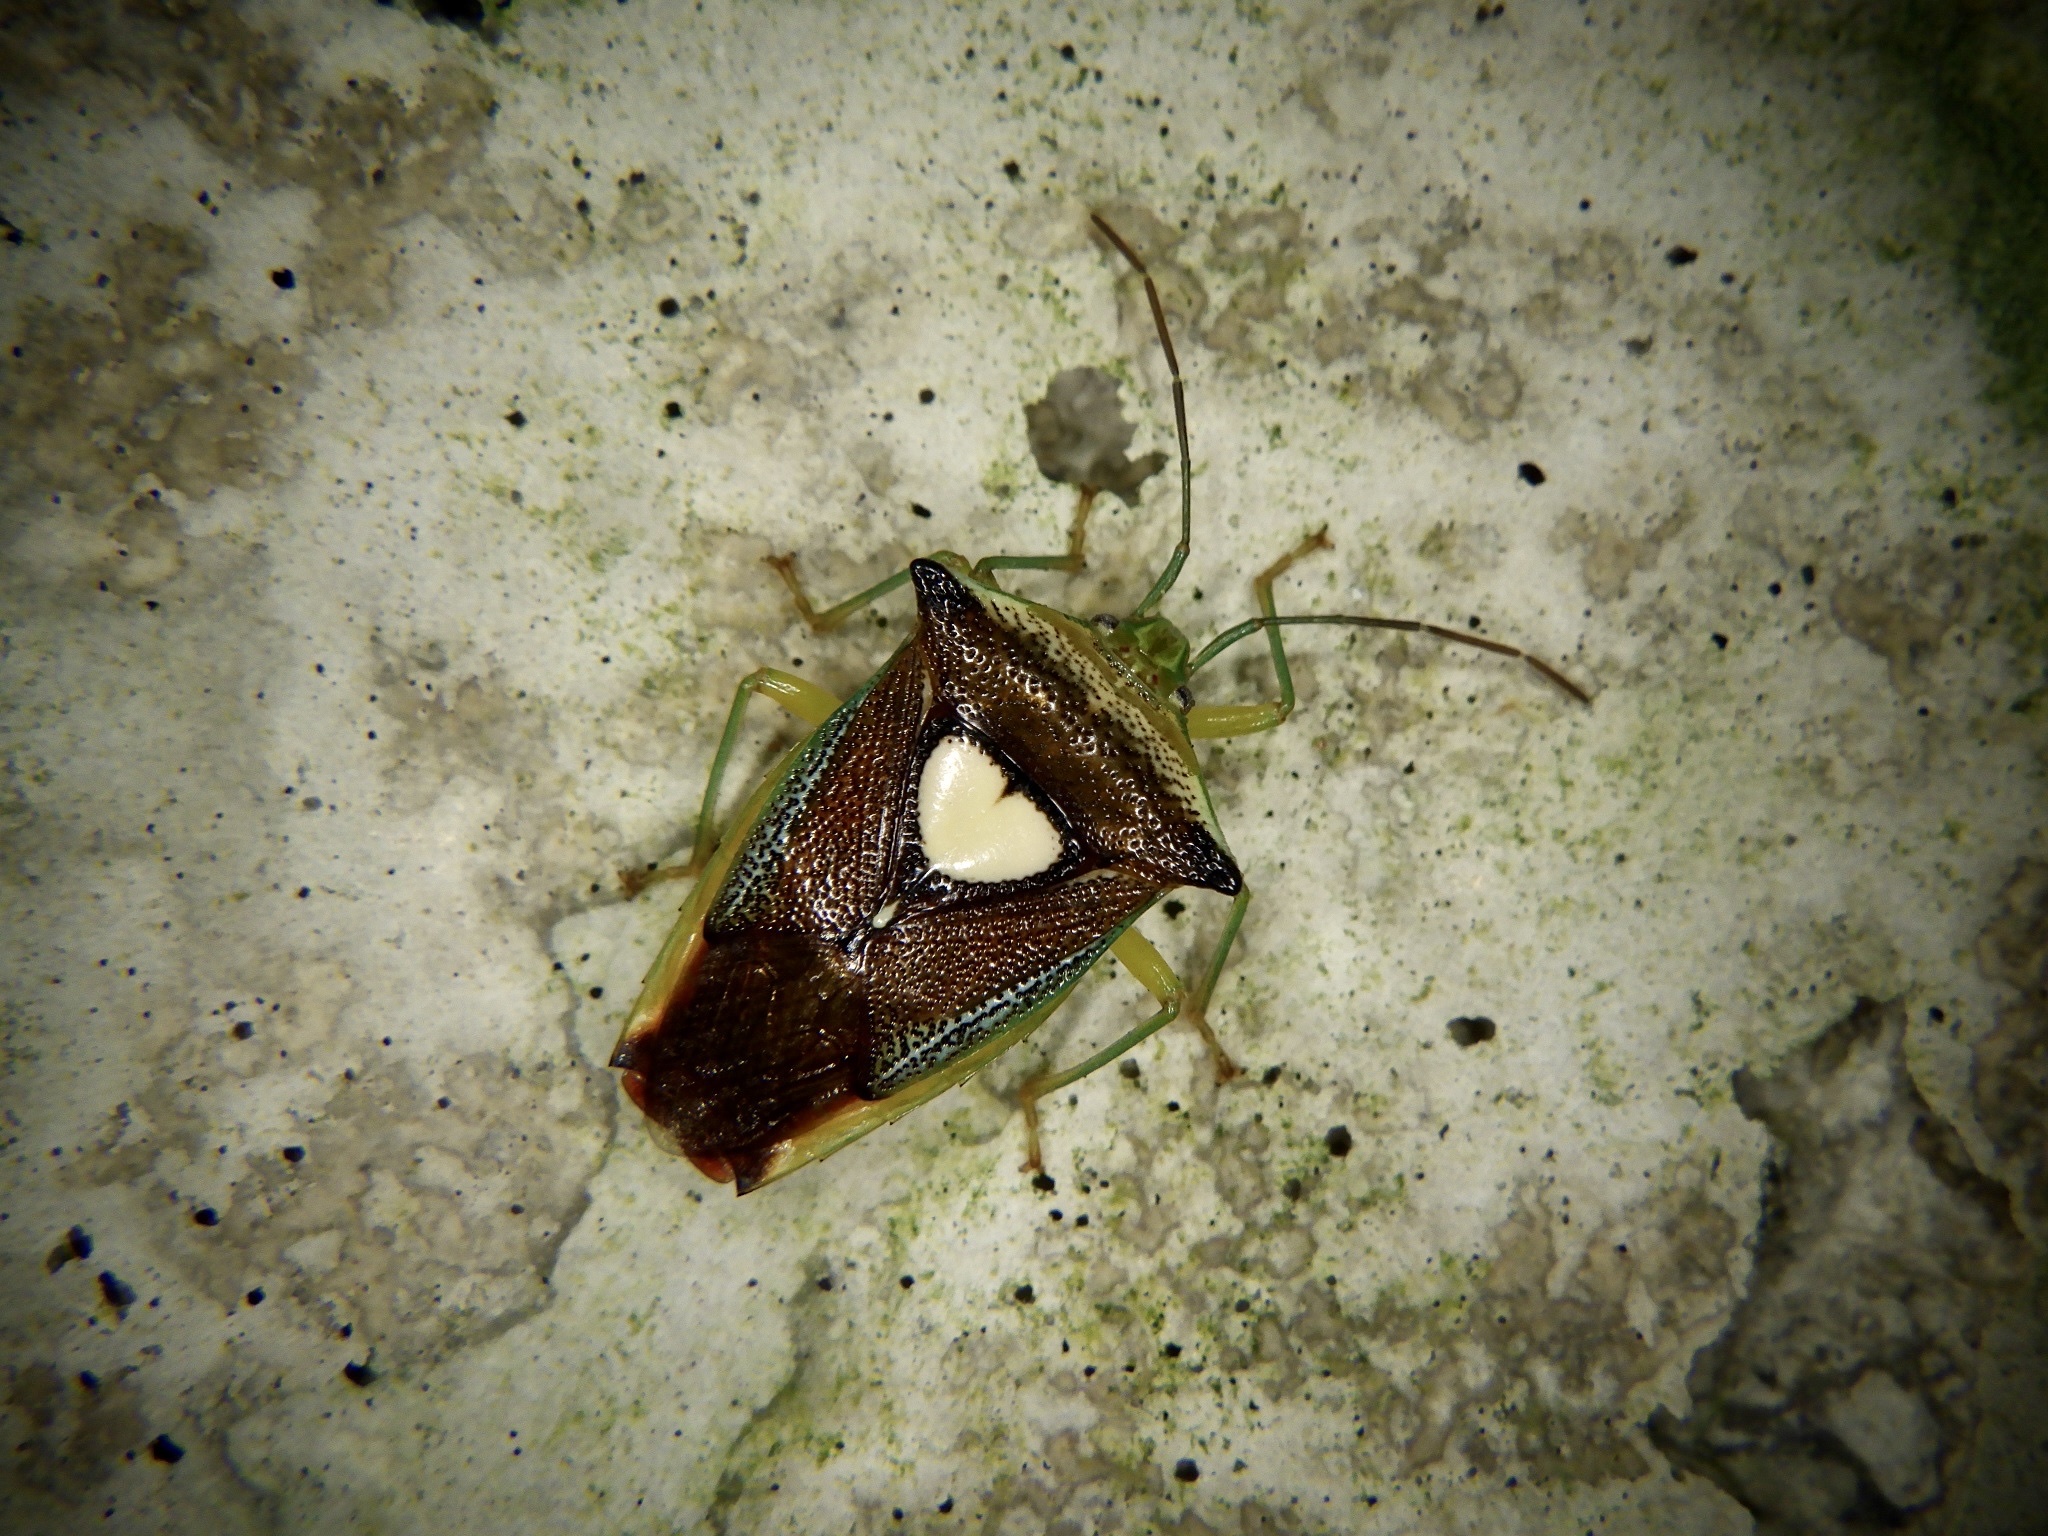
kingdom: Animalia
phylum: Arthropoda
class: Insecta
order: Hemiptera
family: Acanthosomatidae
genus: Sastragala
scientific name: Sastragala esakii
